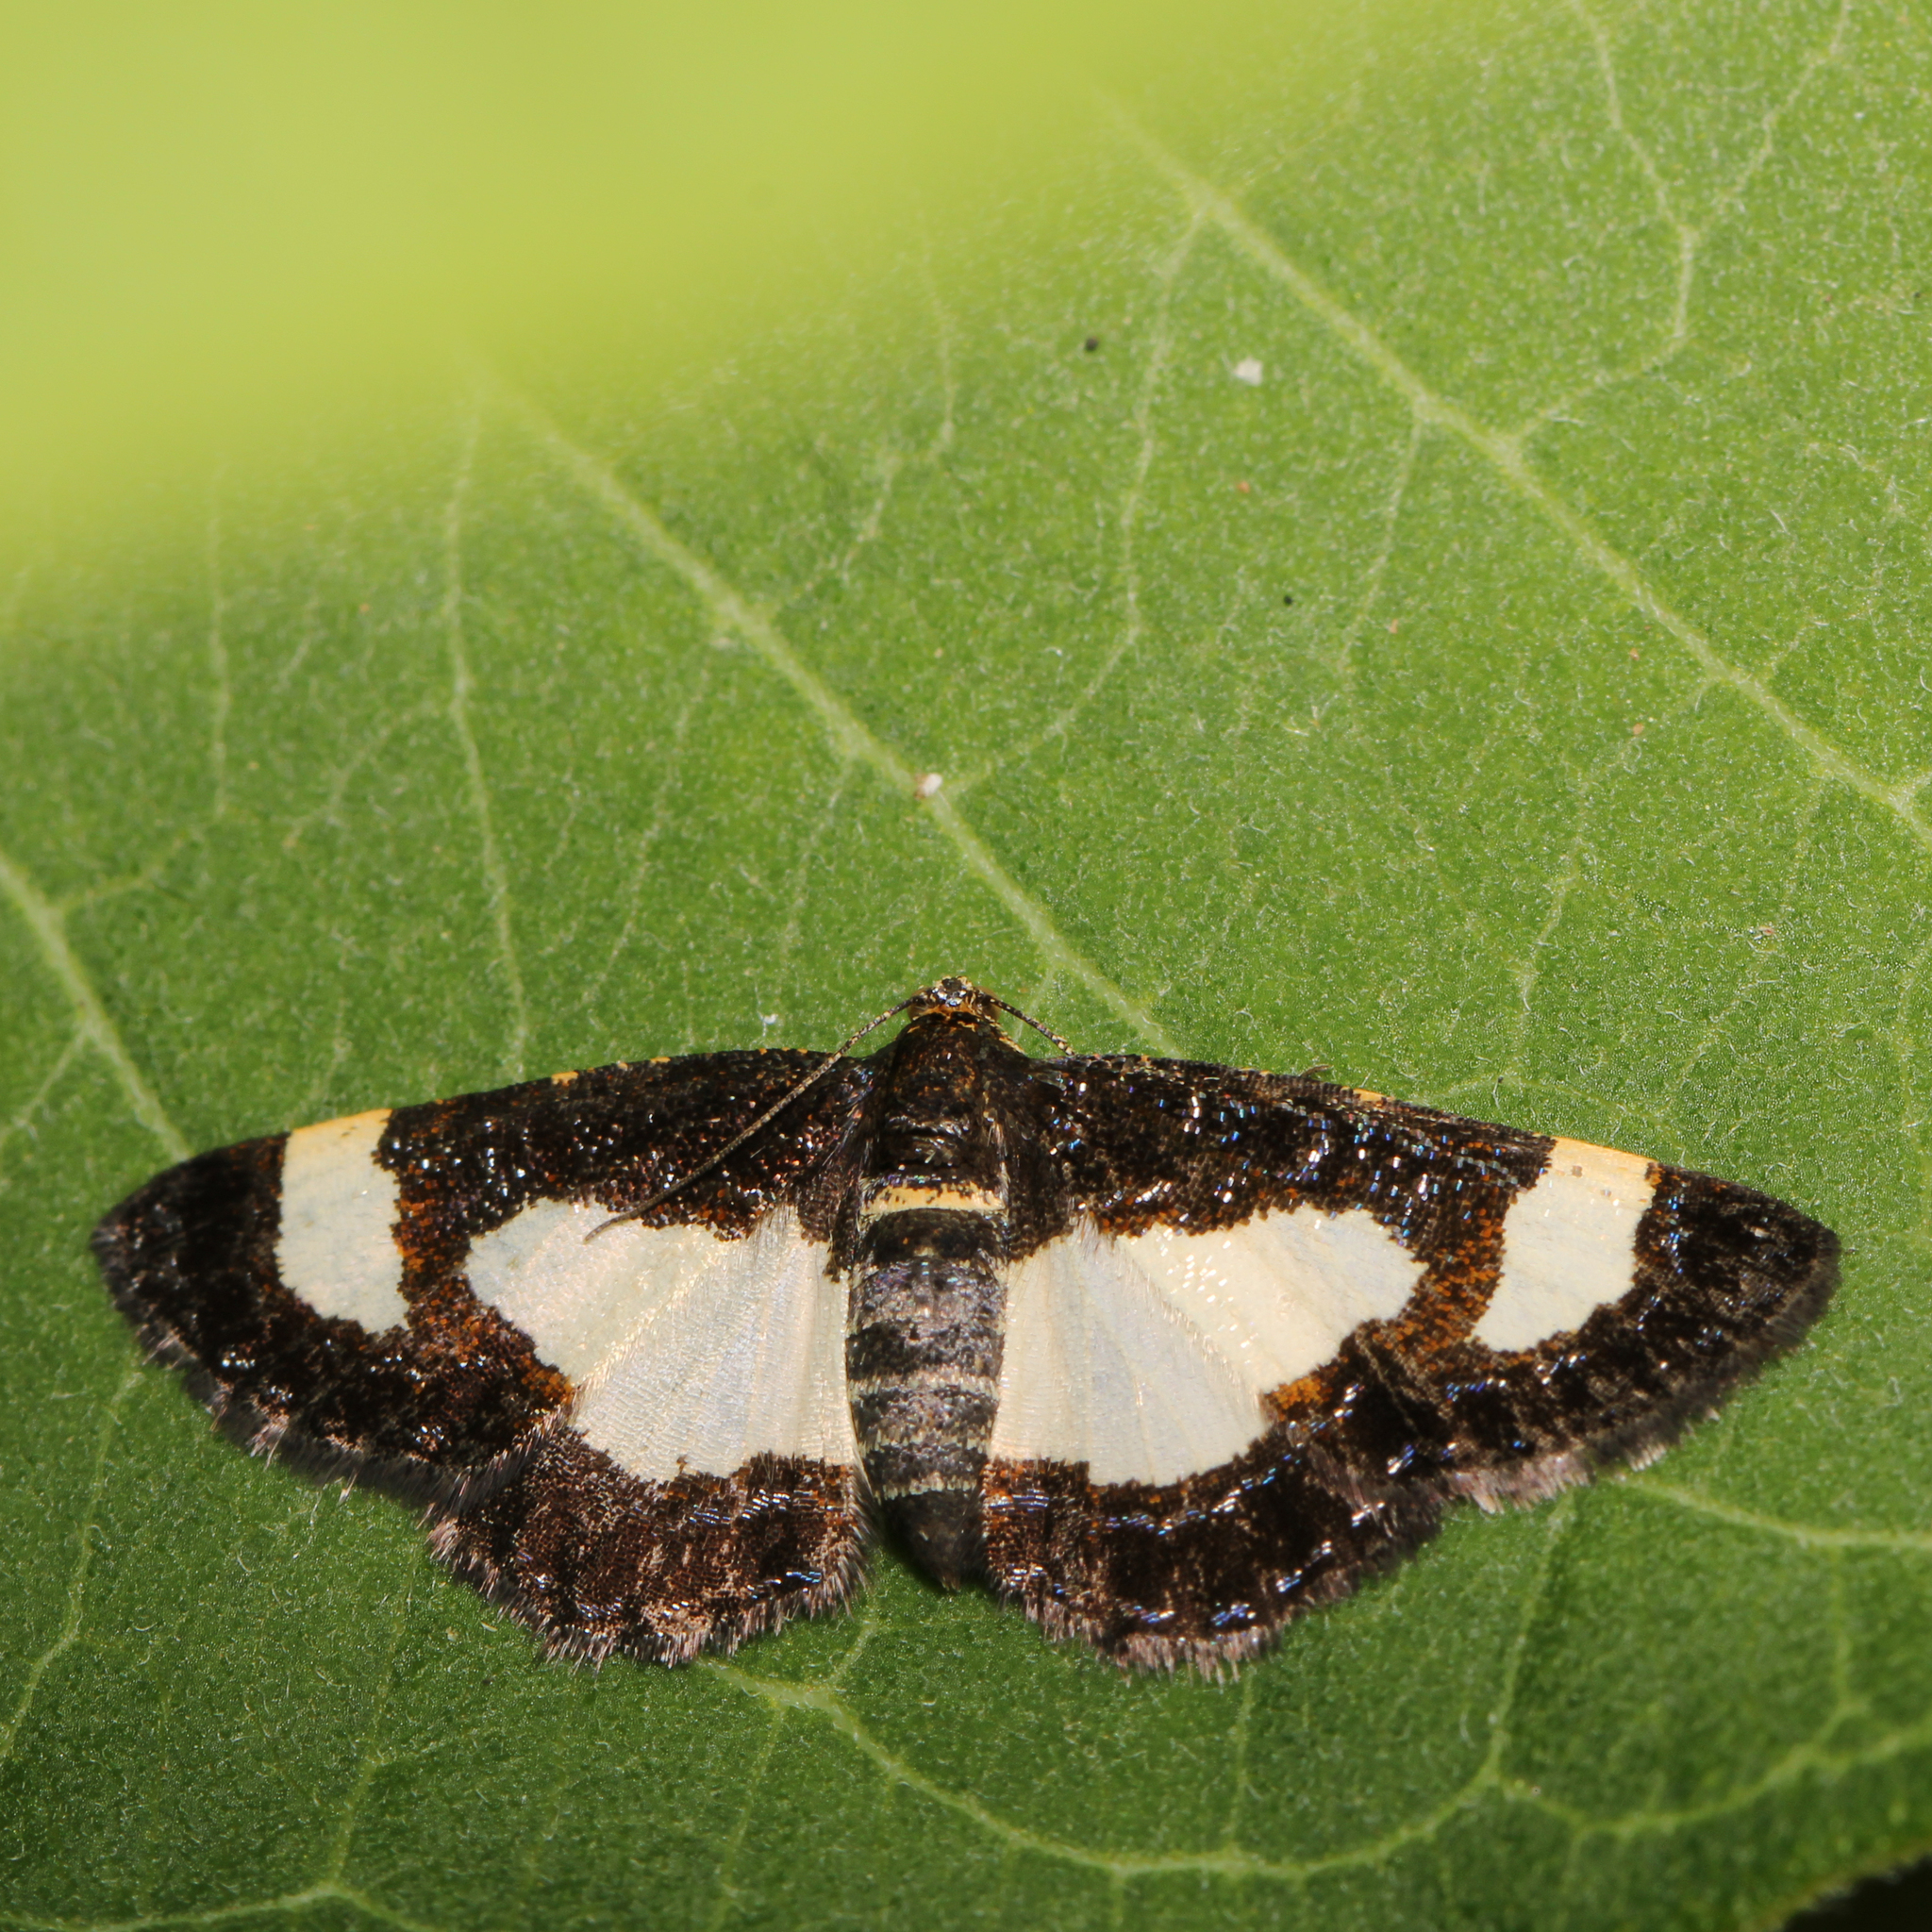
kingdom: Animalia
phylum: Arthropoda
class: Insecta
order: Lepidoptera
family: Geometridae
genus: Heliomata
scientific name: Heliomata cycladata
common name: Common spring moth
